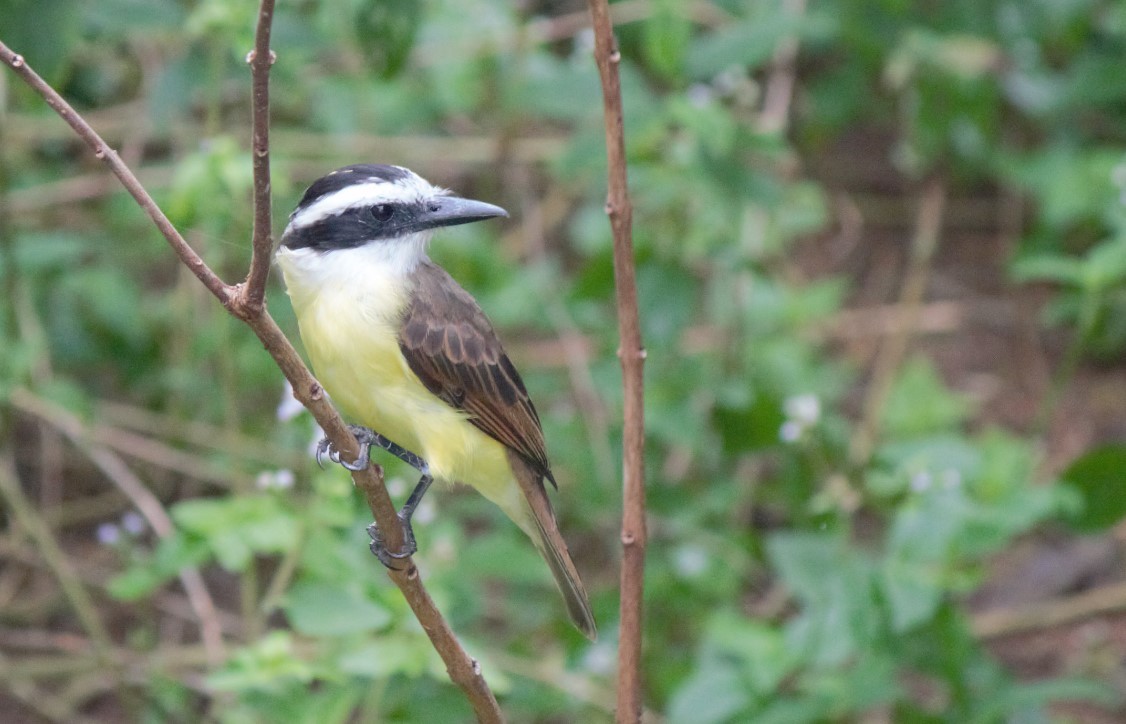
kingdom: Animalia
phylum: Chordata
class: Aves
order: Passeriformes
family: Tyrannidae
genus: Pitangus
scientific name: Pitangus sulphuratus
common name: Great kiskadee
